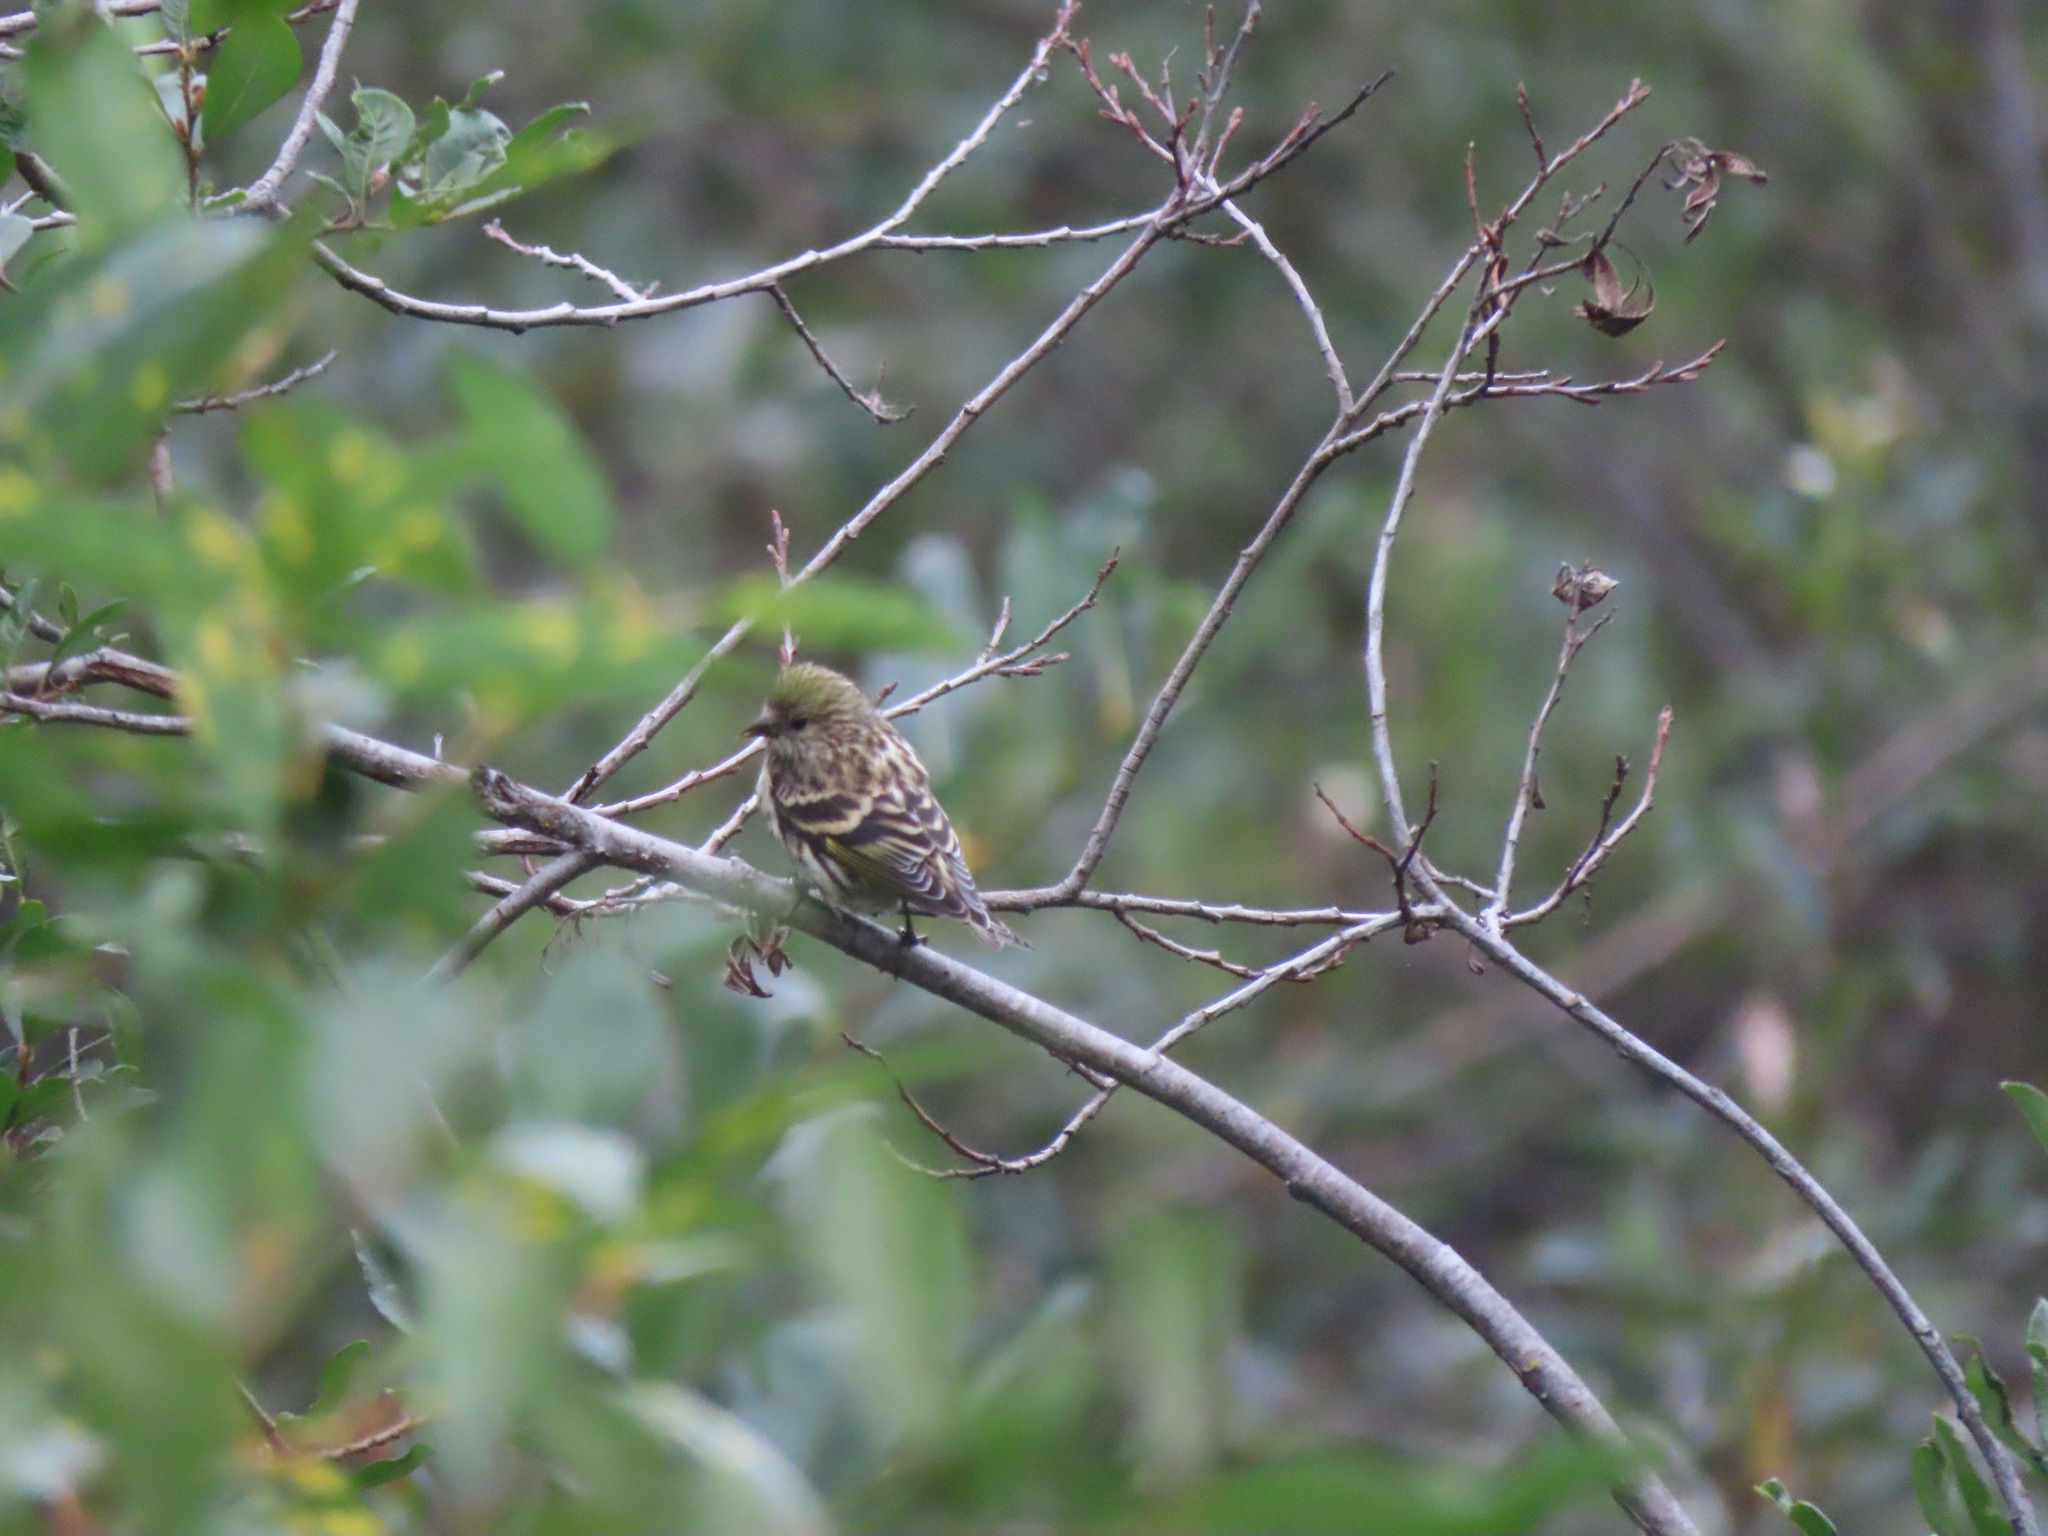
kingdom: Animalia
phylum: Chordata
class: Aves
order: Passeriformes
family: Fringillidae
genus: Spinus
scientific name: Spinus pinus
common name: Pine siskin
